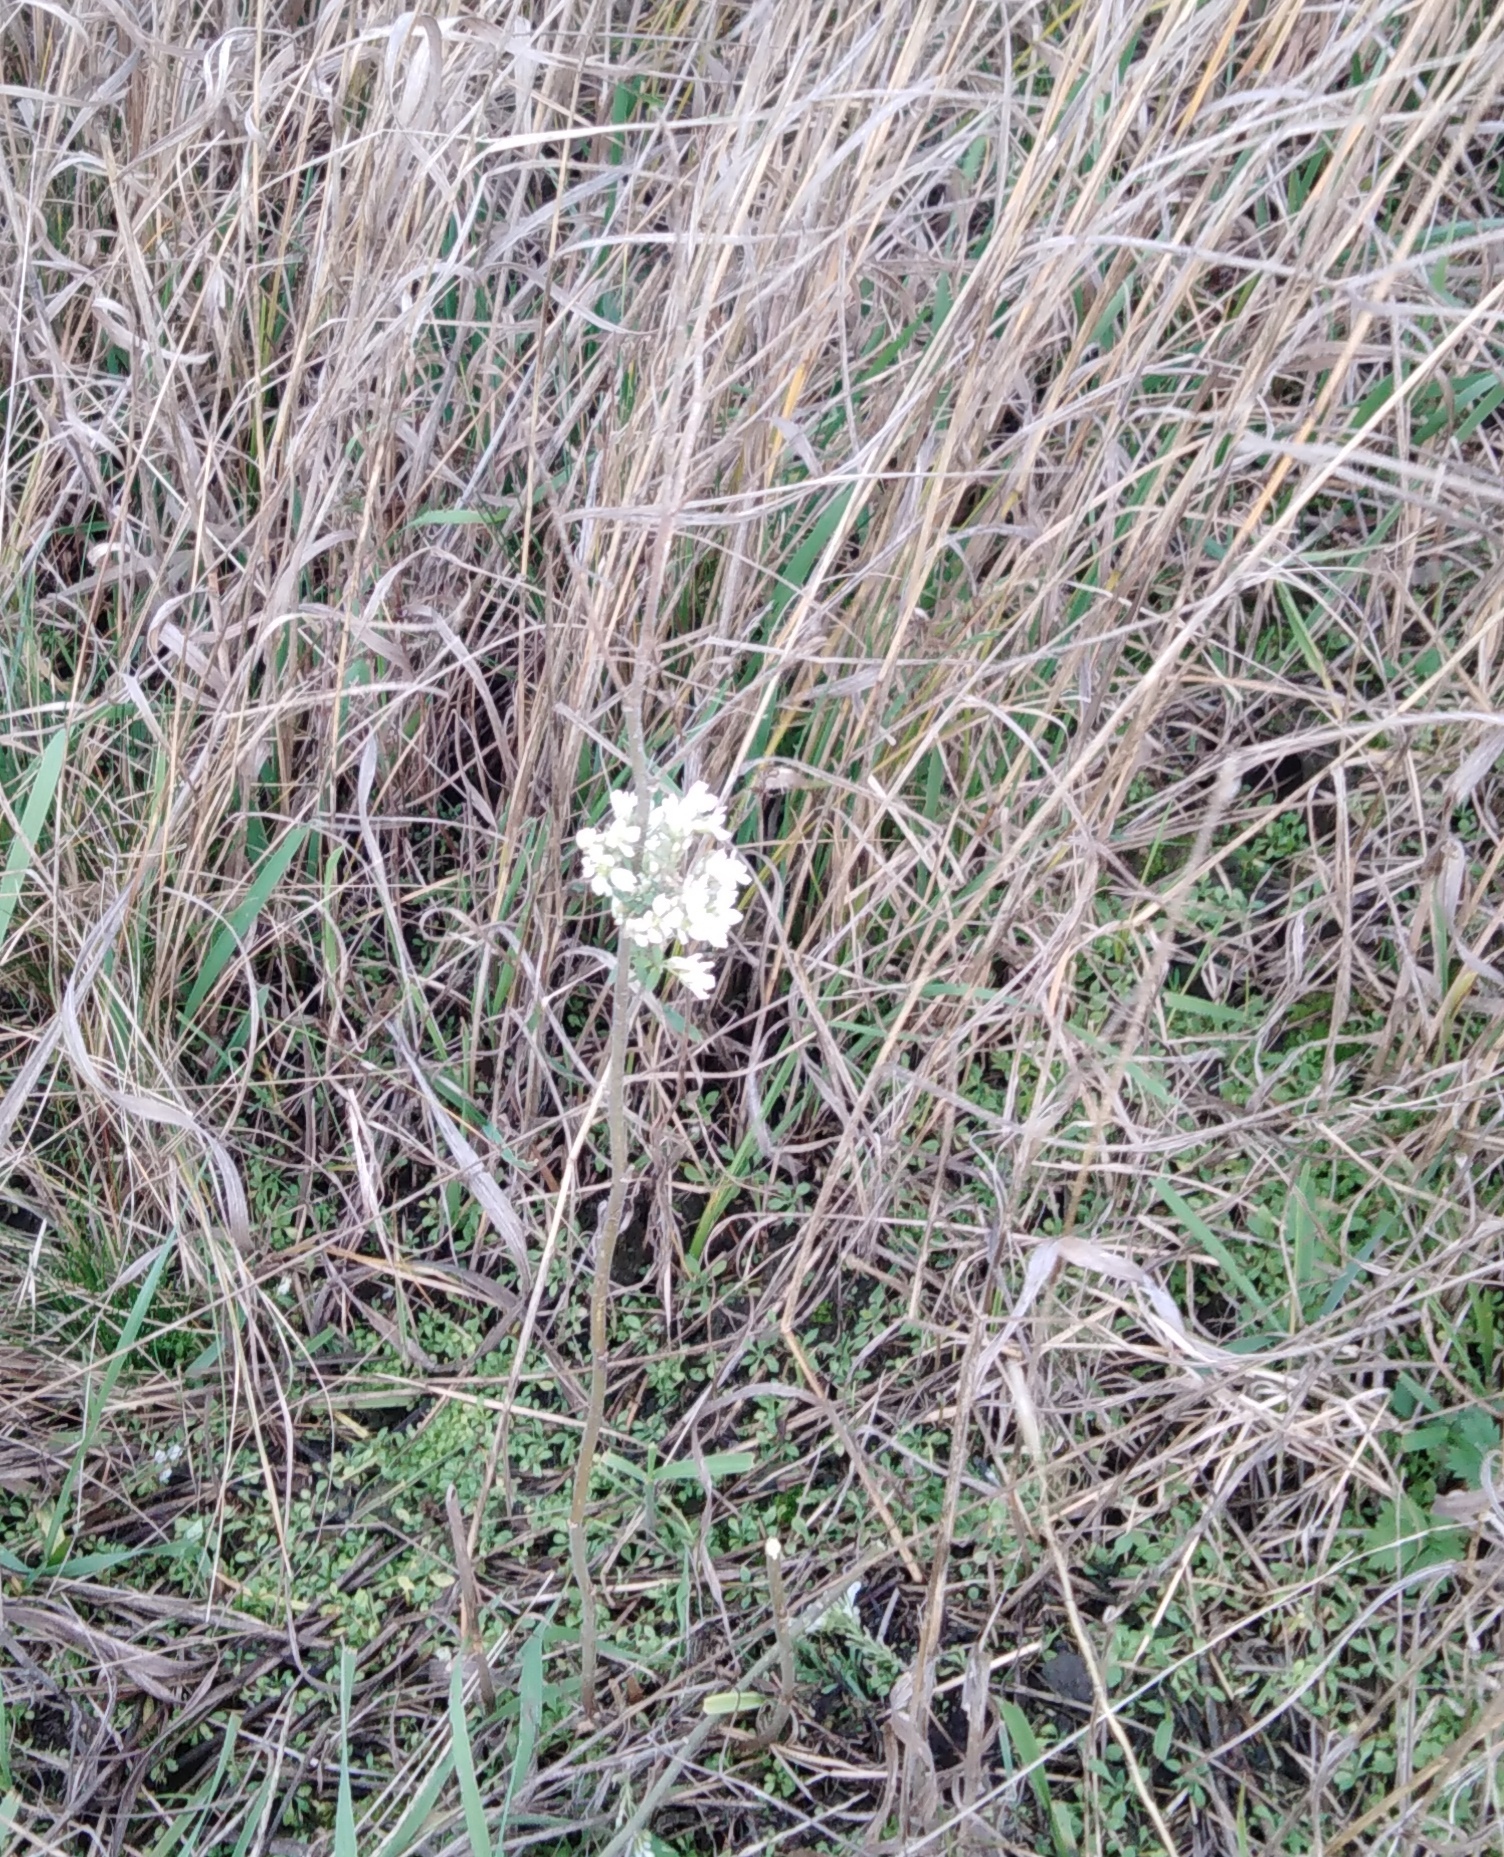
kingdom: Plantae
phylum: Tracheophyta
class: Magnoliopsida
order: Brassicales
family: Brassicaceae
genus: Berteroa
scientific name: Berteroa incana
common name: Hoary alison
